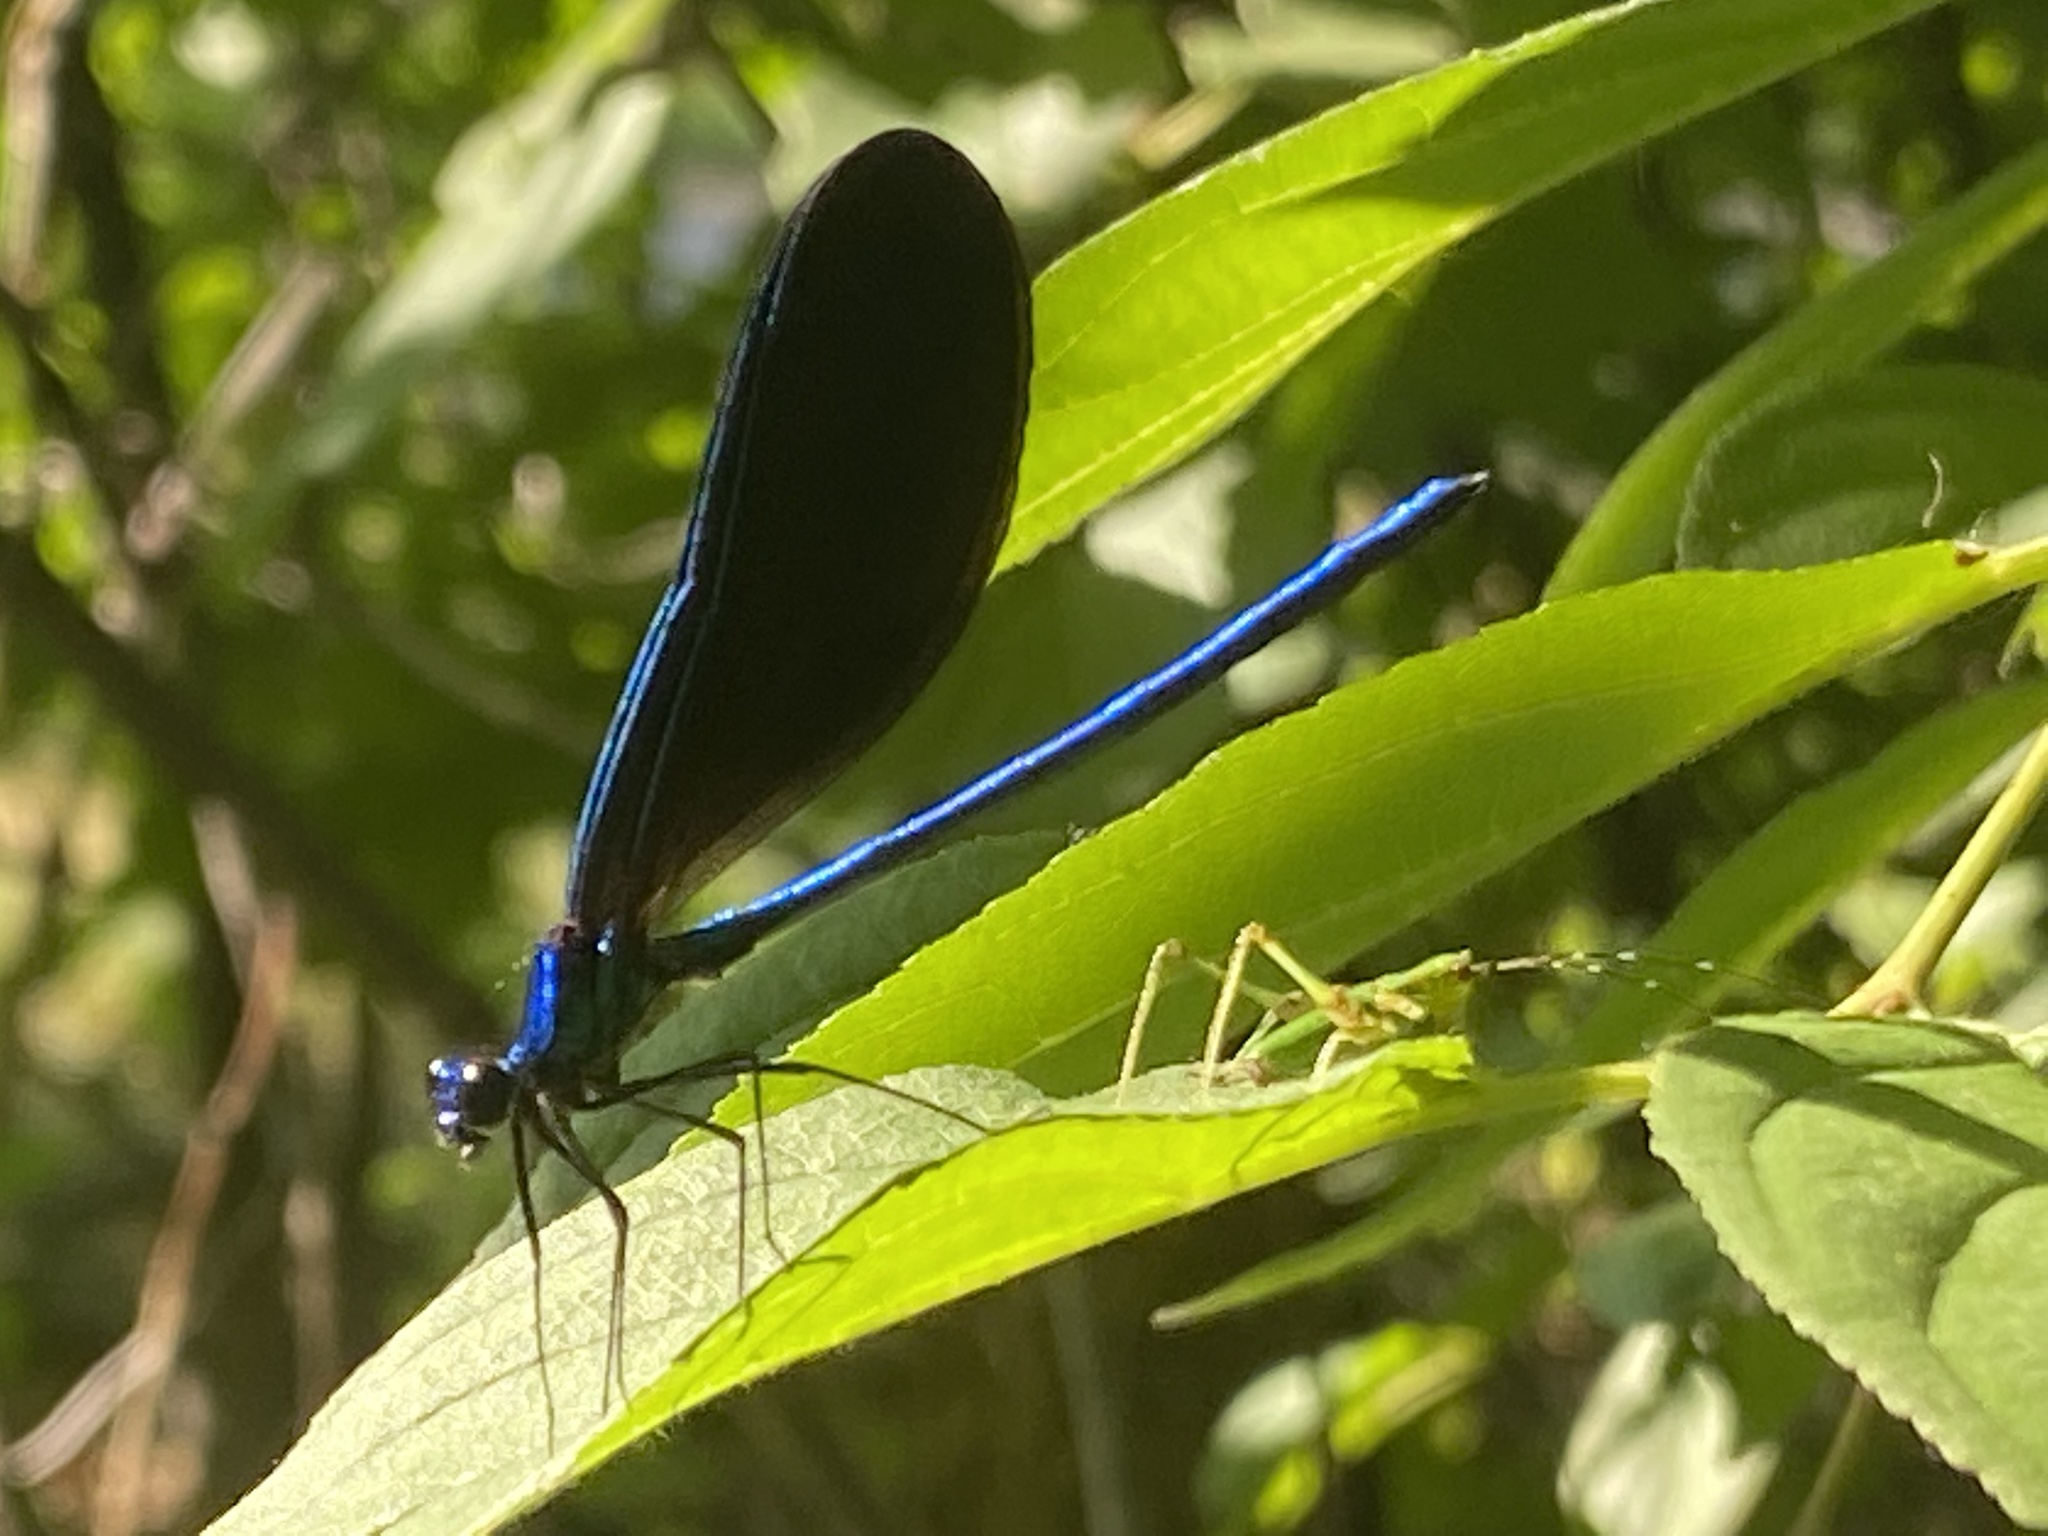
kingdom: Animalia
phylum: Arthropoda
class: Insecta
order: Odonata
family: Calopterygidae
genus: Calopteryx
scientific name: Calopteryx maculata
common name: Ebony jewelwing
